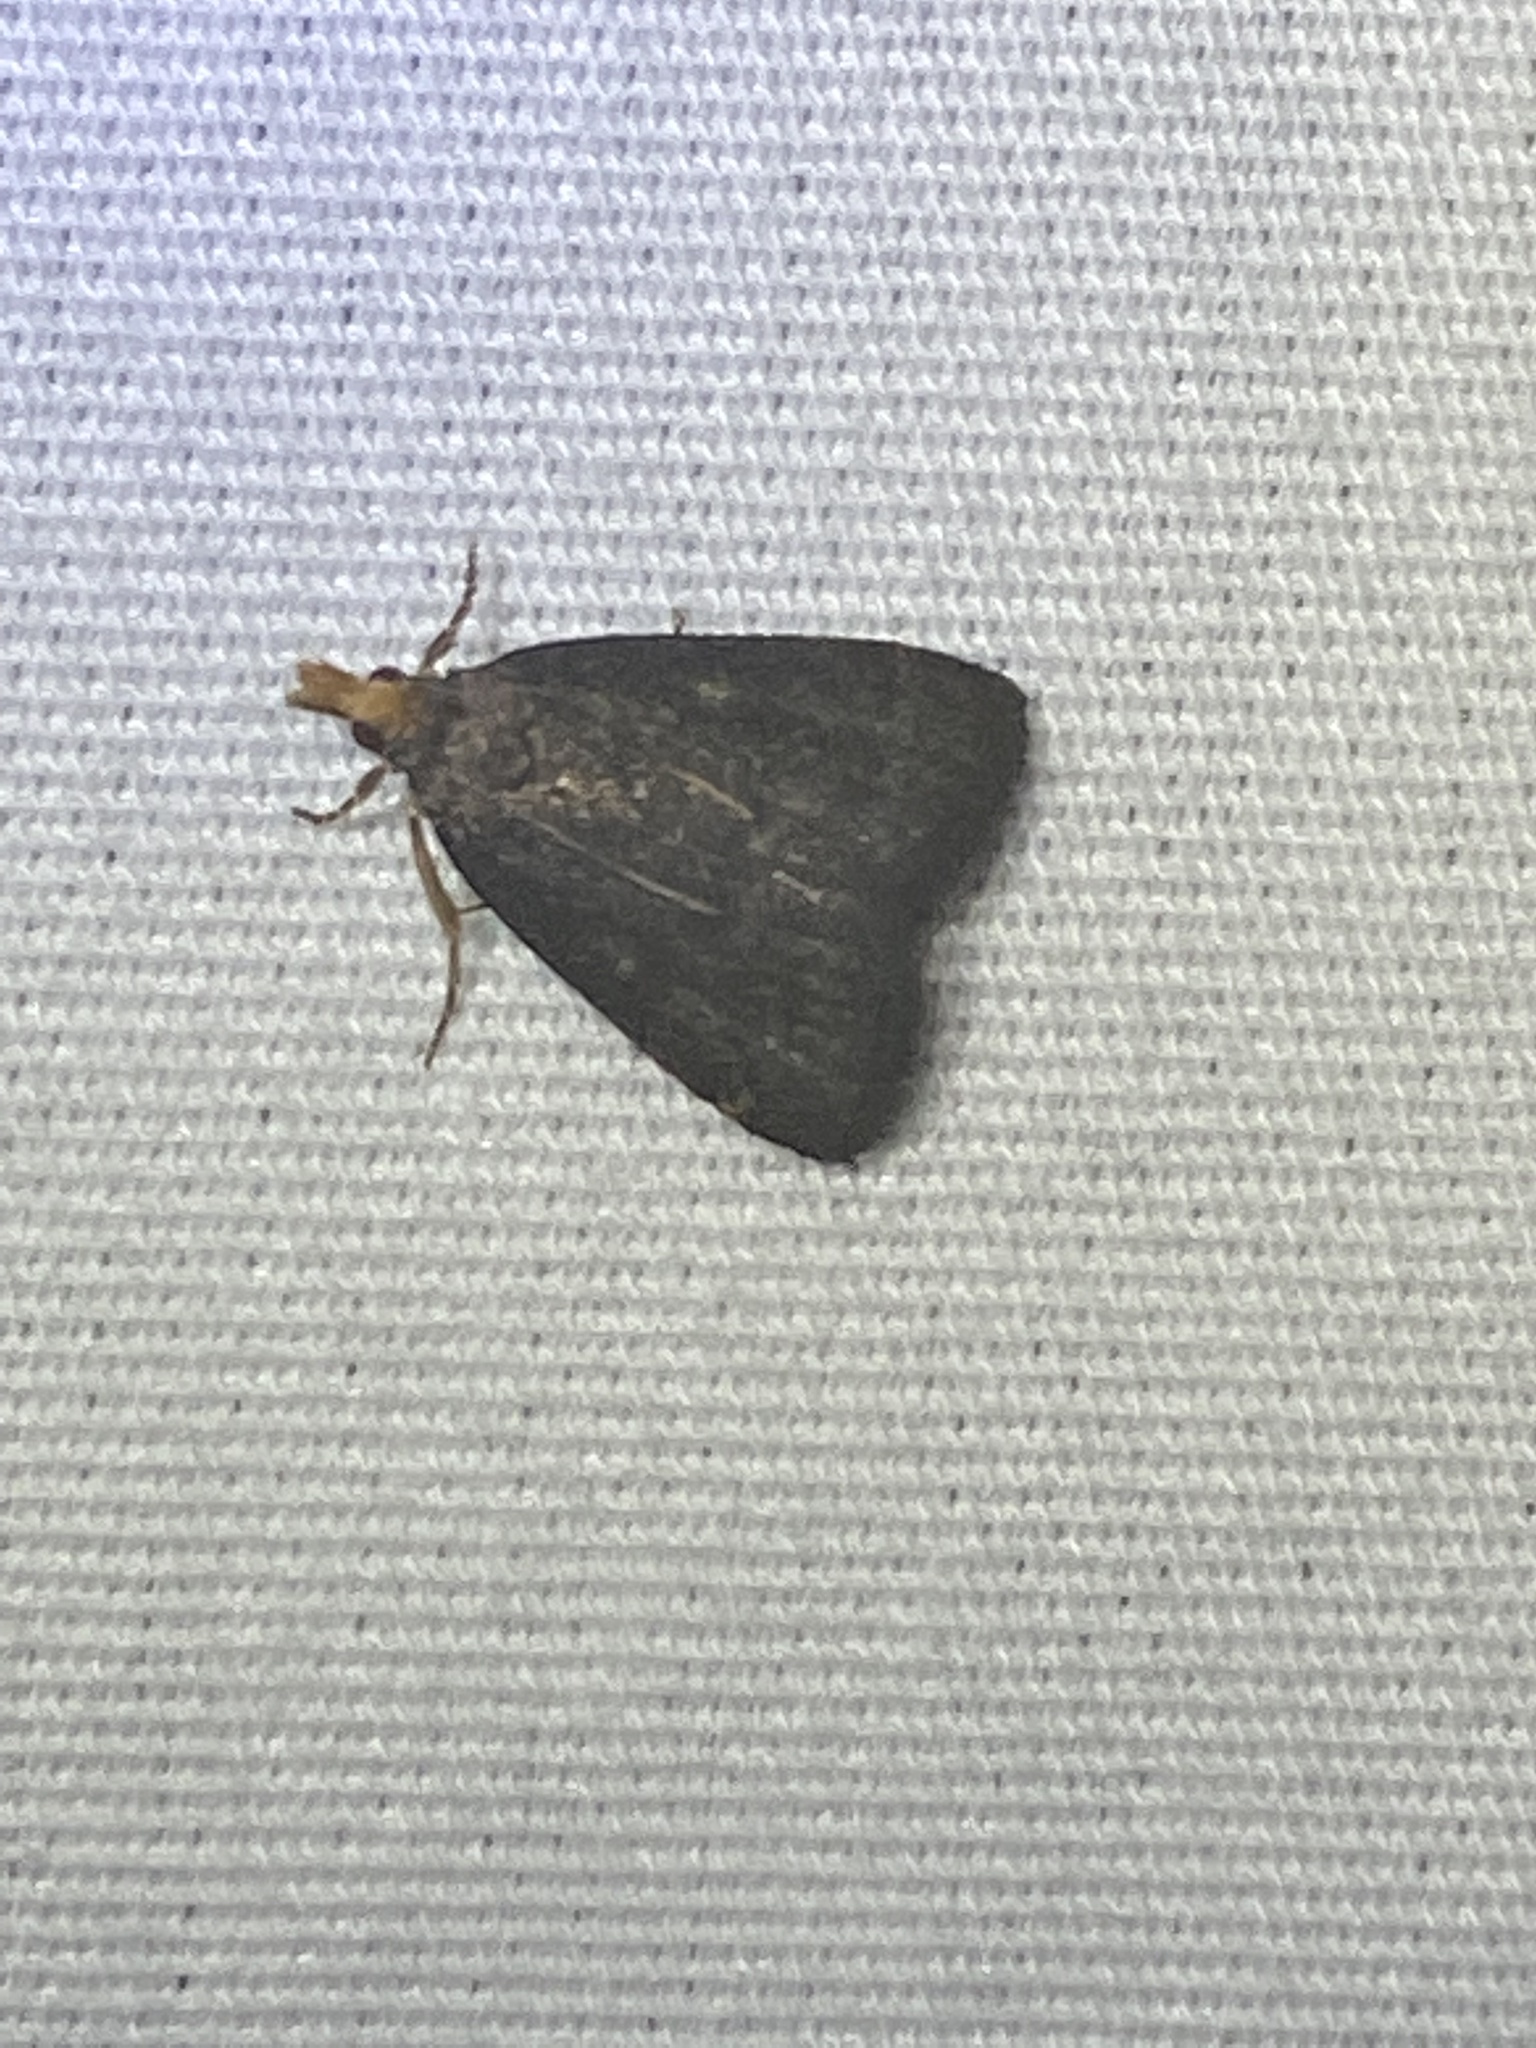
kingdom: Animalia
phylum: Arthropoda
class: Insecta
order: Lepidoptera
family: Crambidae
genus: Pyrausta
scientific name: Pyrausta merrickalis
